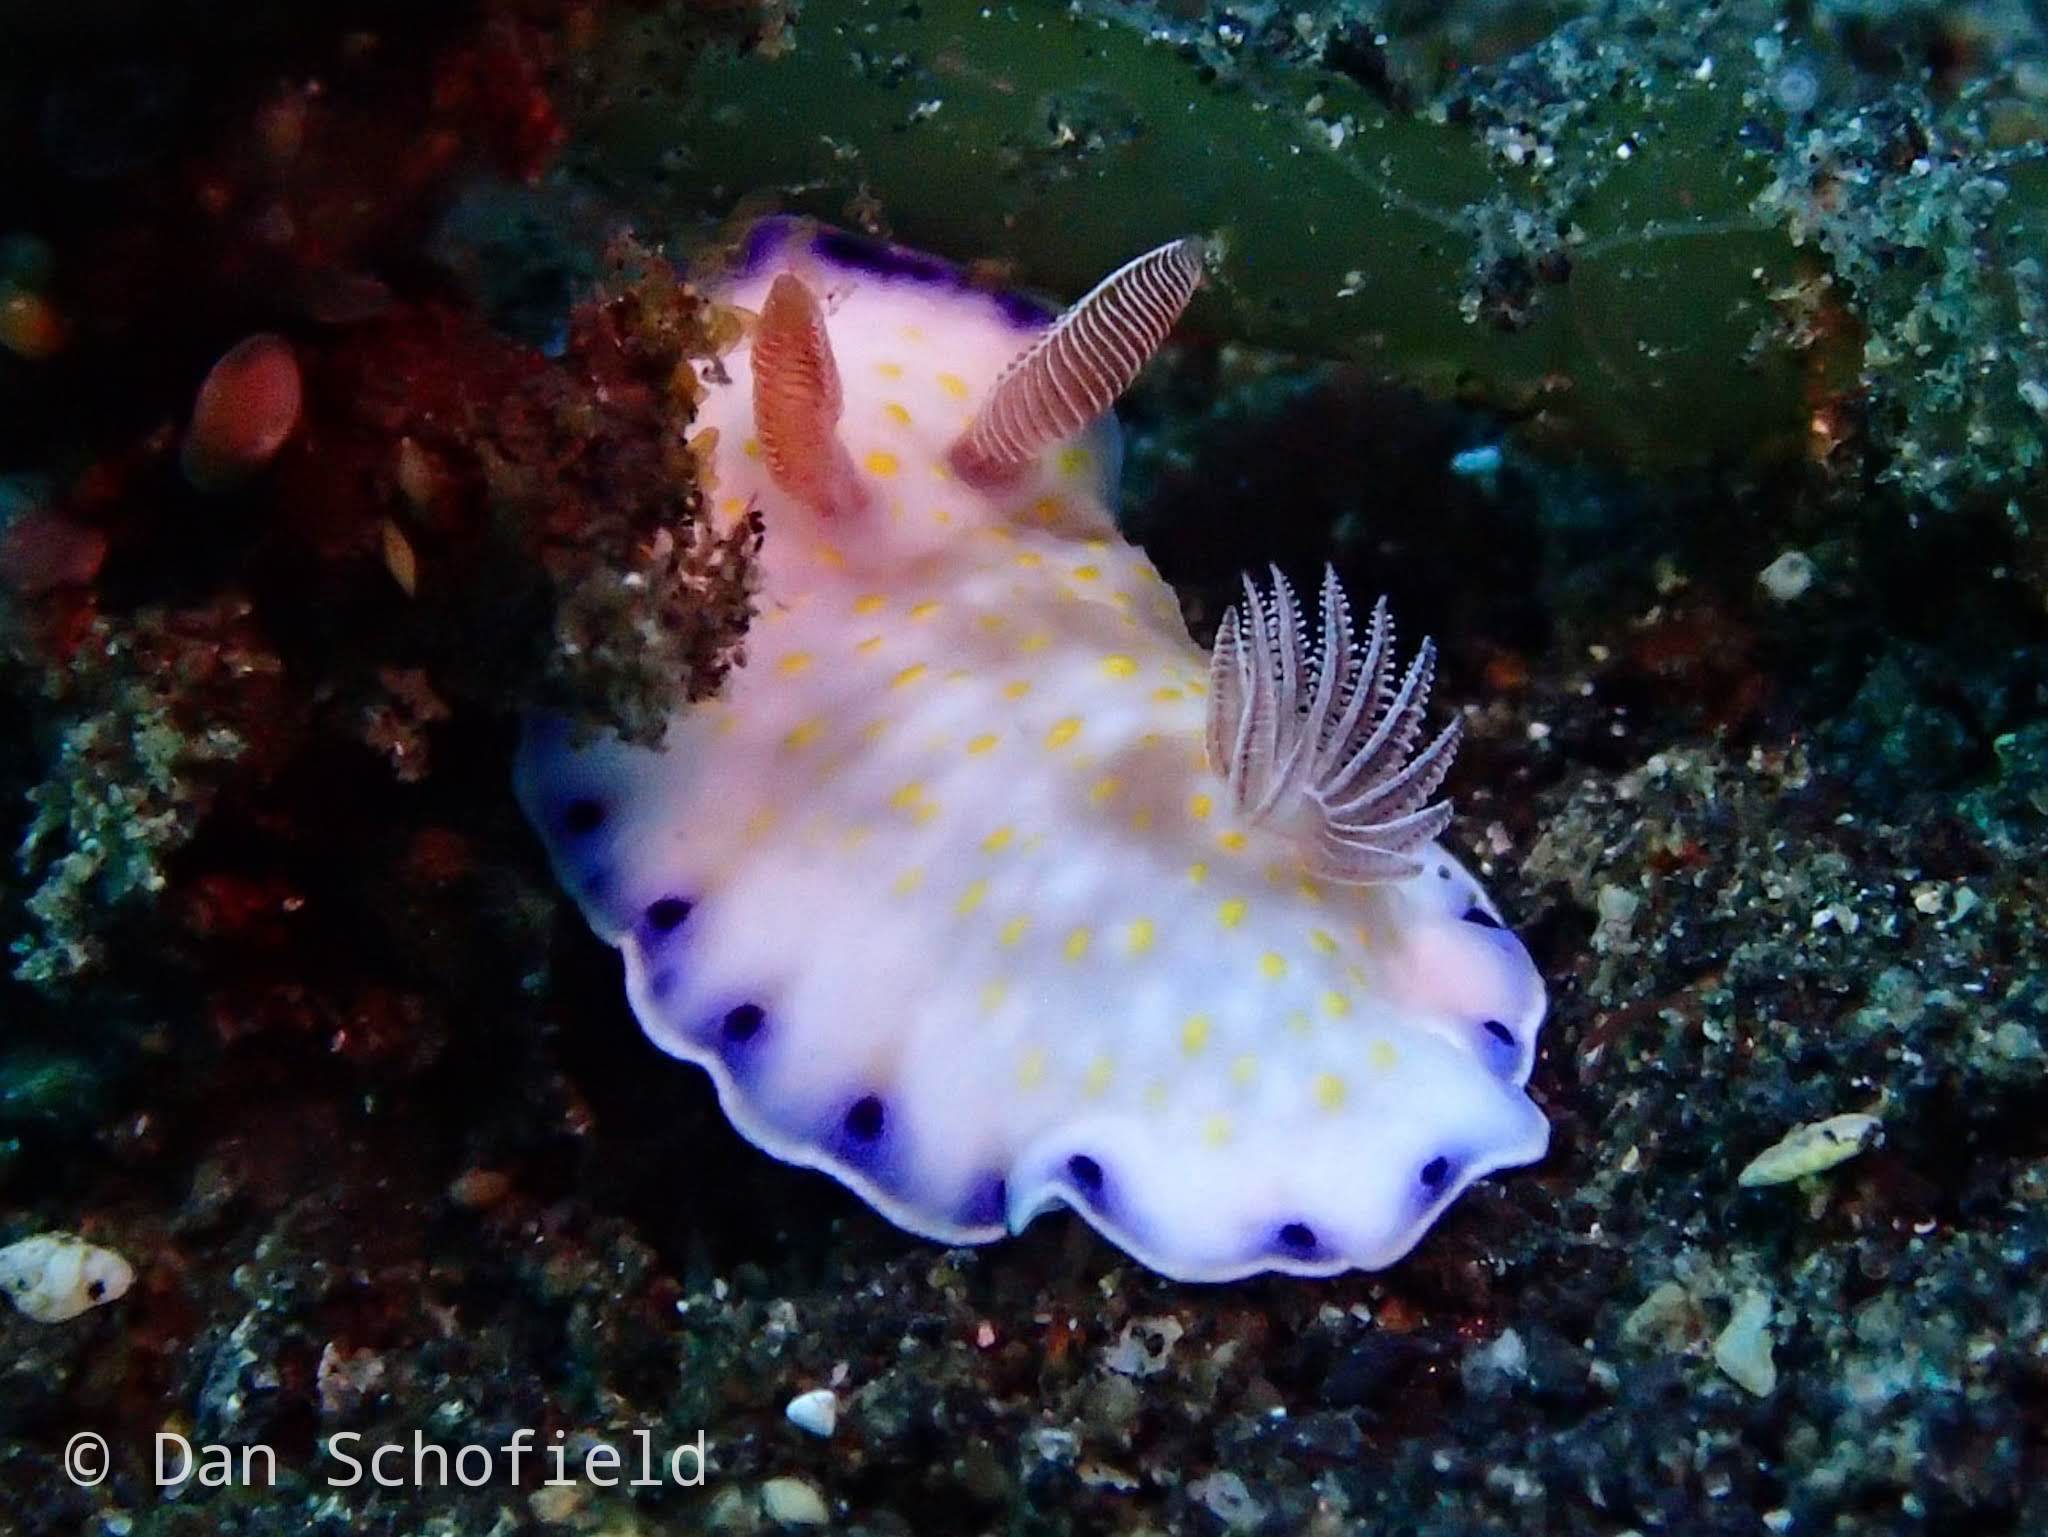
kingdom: Animalia
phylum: Mollusca
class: Gastropoda
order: Nudibranchia
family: Chromodorididae
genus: Goniobranchus
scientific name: Goniobranchus aureopurpureus
